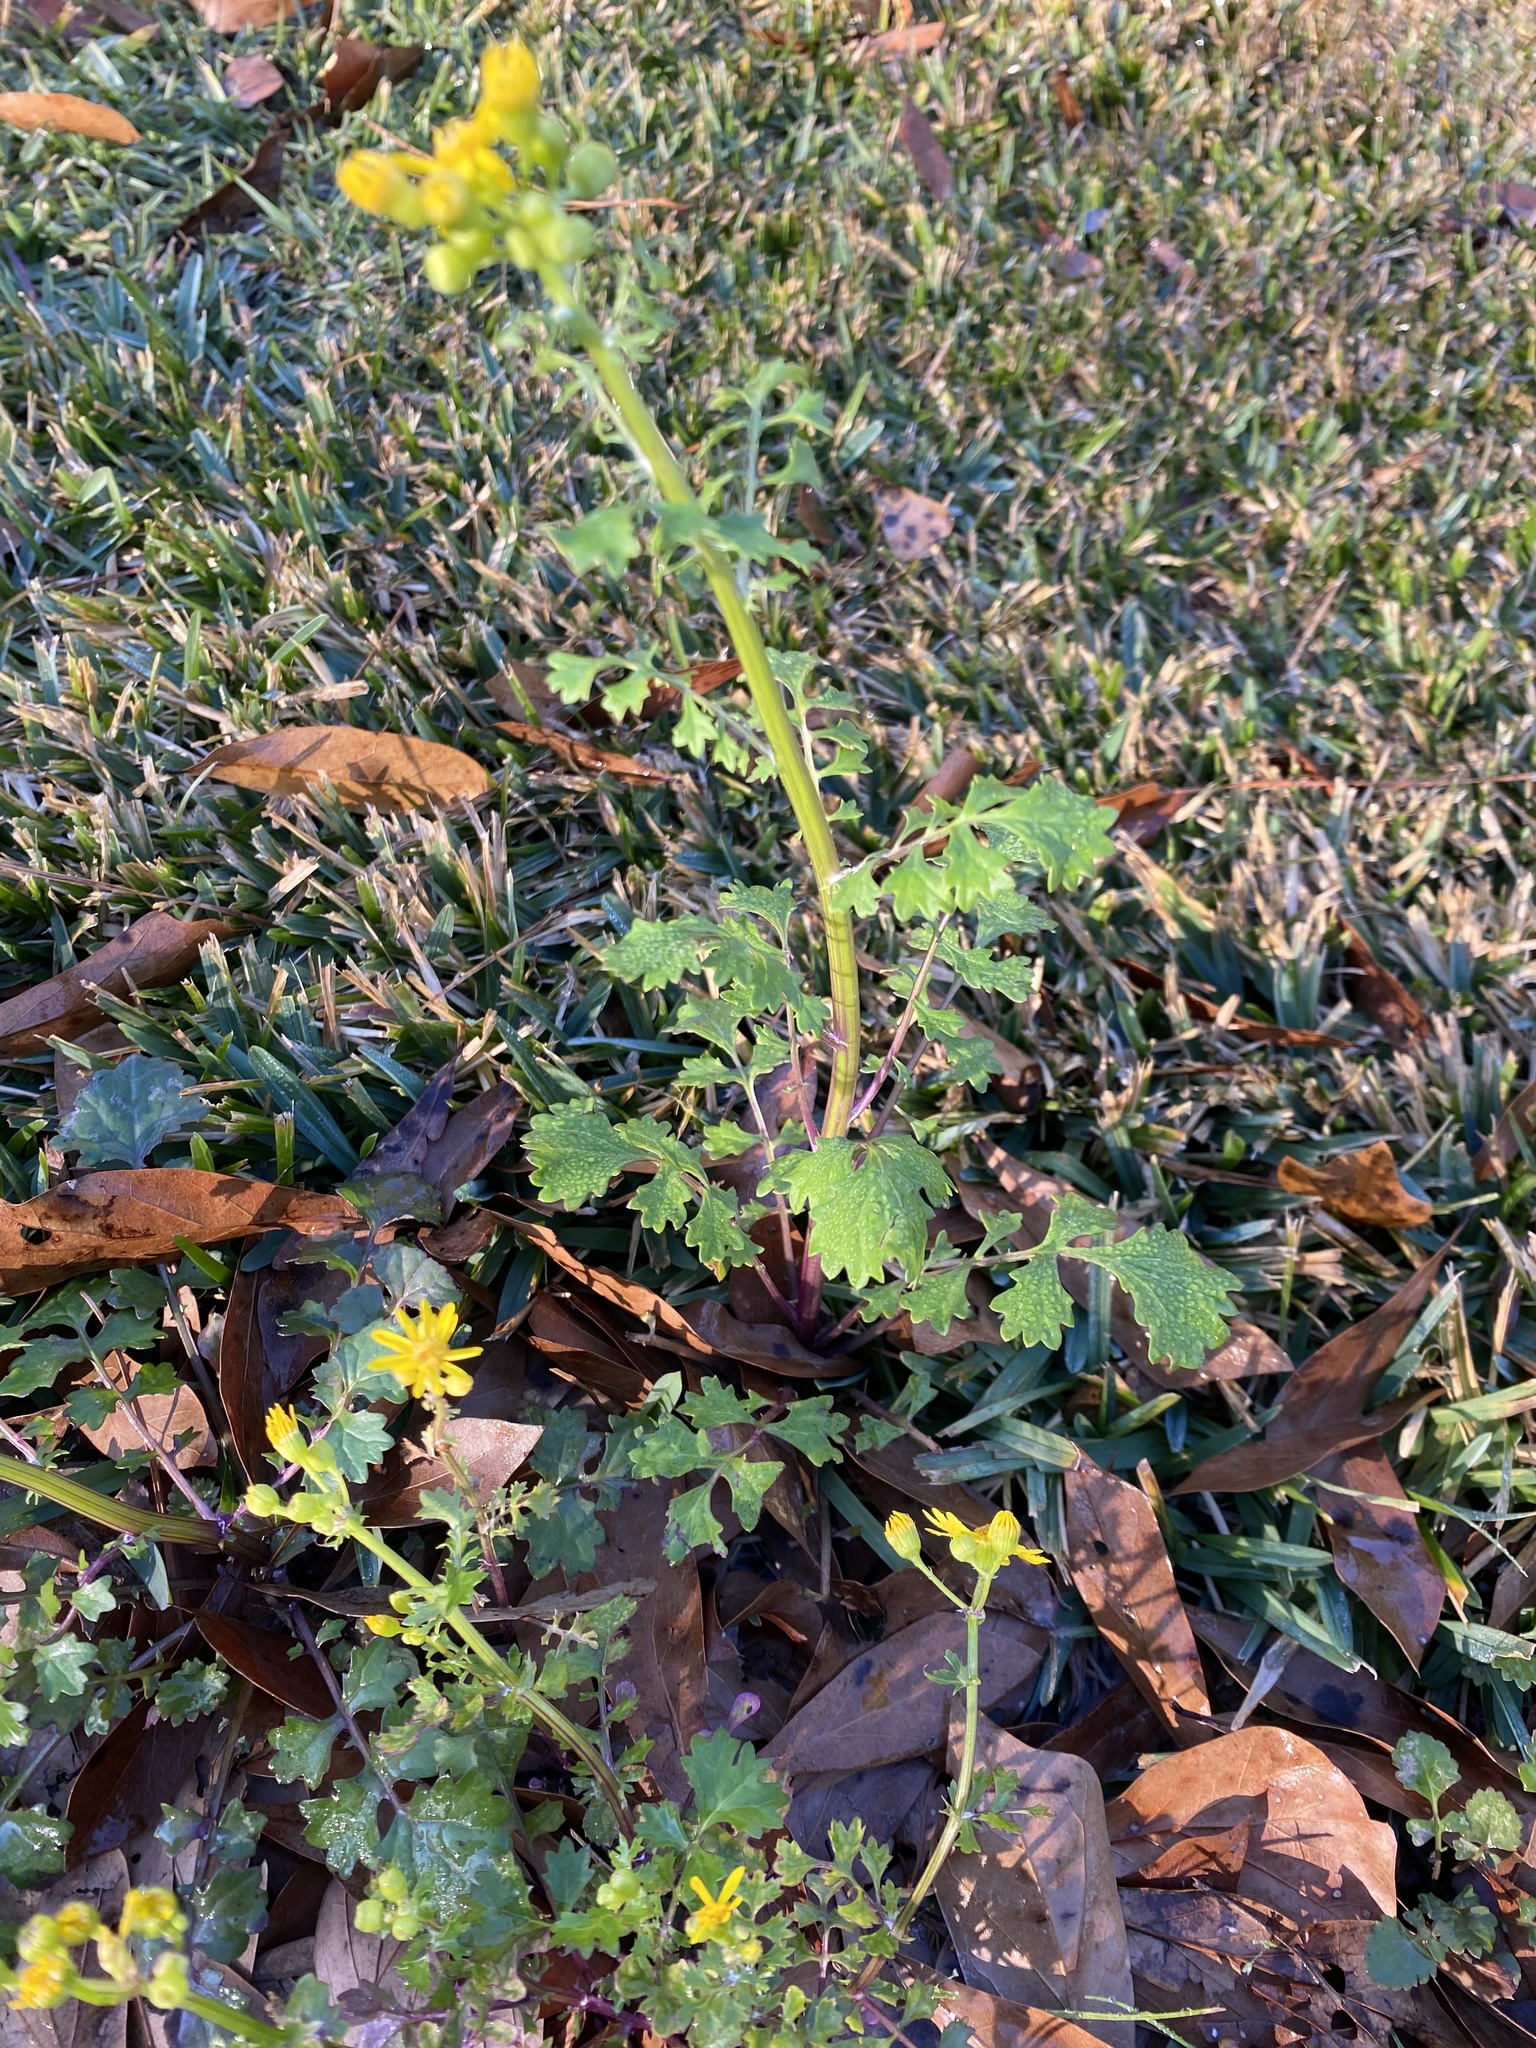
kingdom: Plantae
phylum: Tracheophyta
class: Magnoliopsida
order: Asterales
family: Asteraceae
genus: Packera
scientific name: Packera glabella
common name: Butterweed
